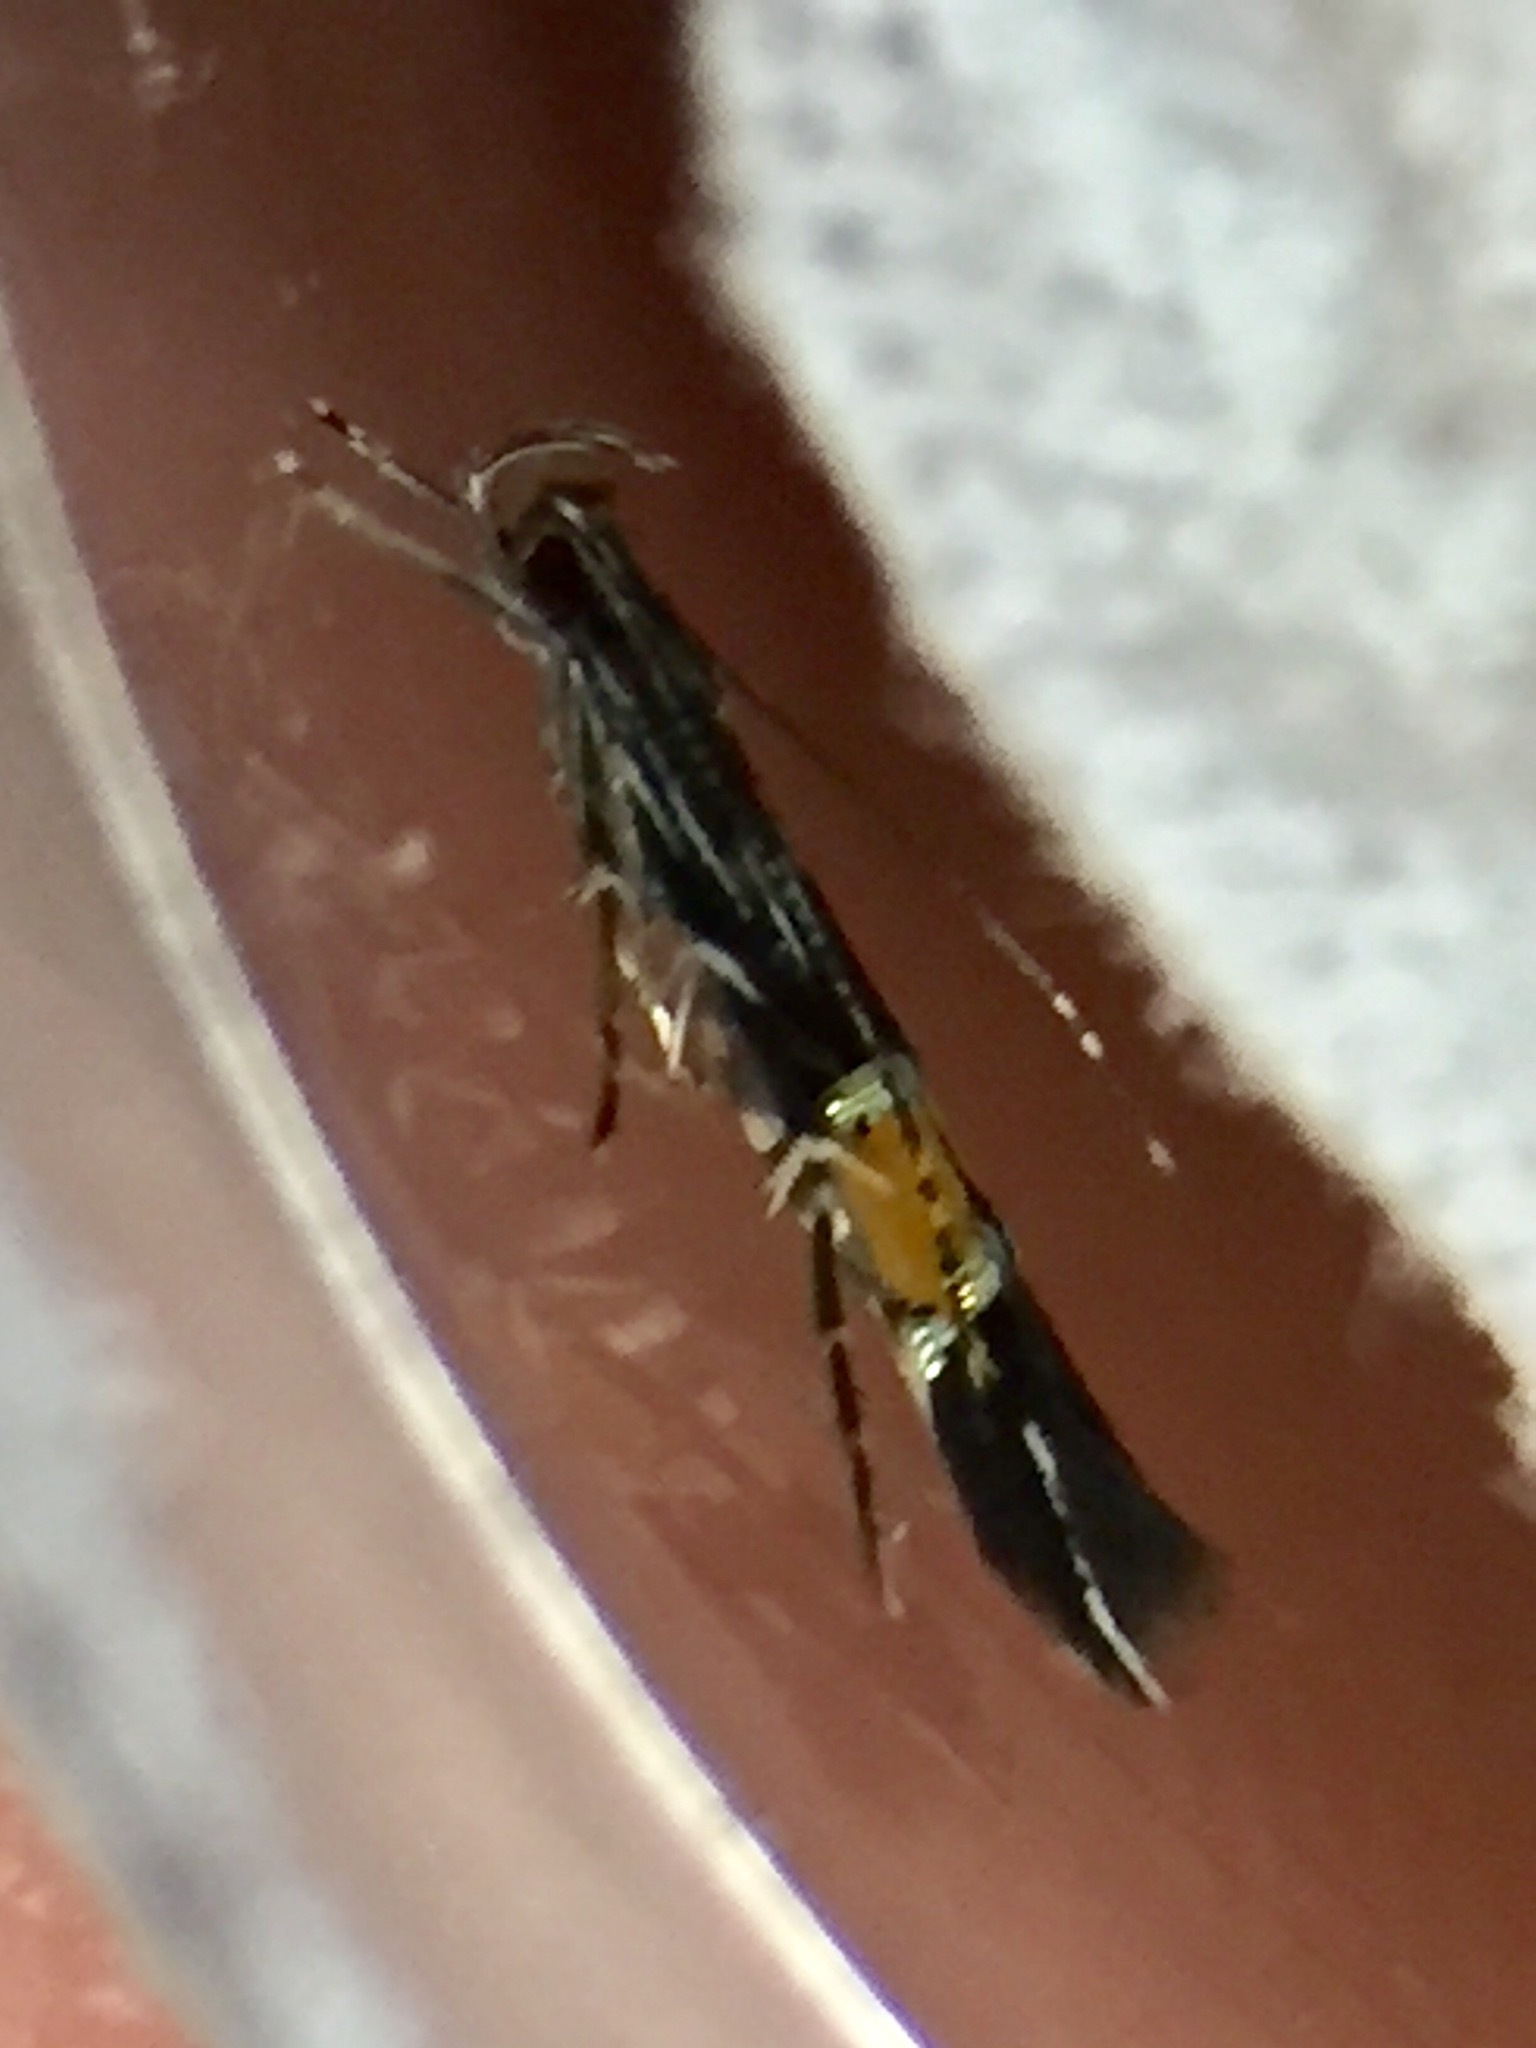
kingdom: Animalia
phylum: Arthropoda
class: Insecta
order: Lepidoptera
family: Cosmopterigidae
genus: Cosmopterix
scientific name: Cosmopterix attenuatella
